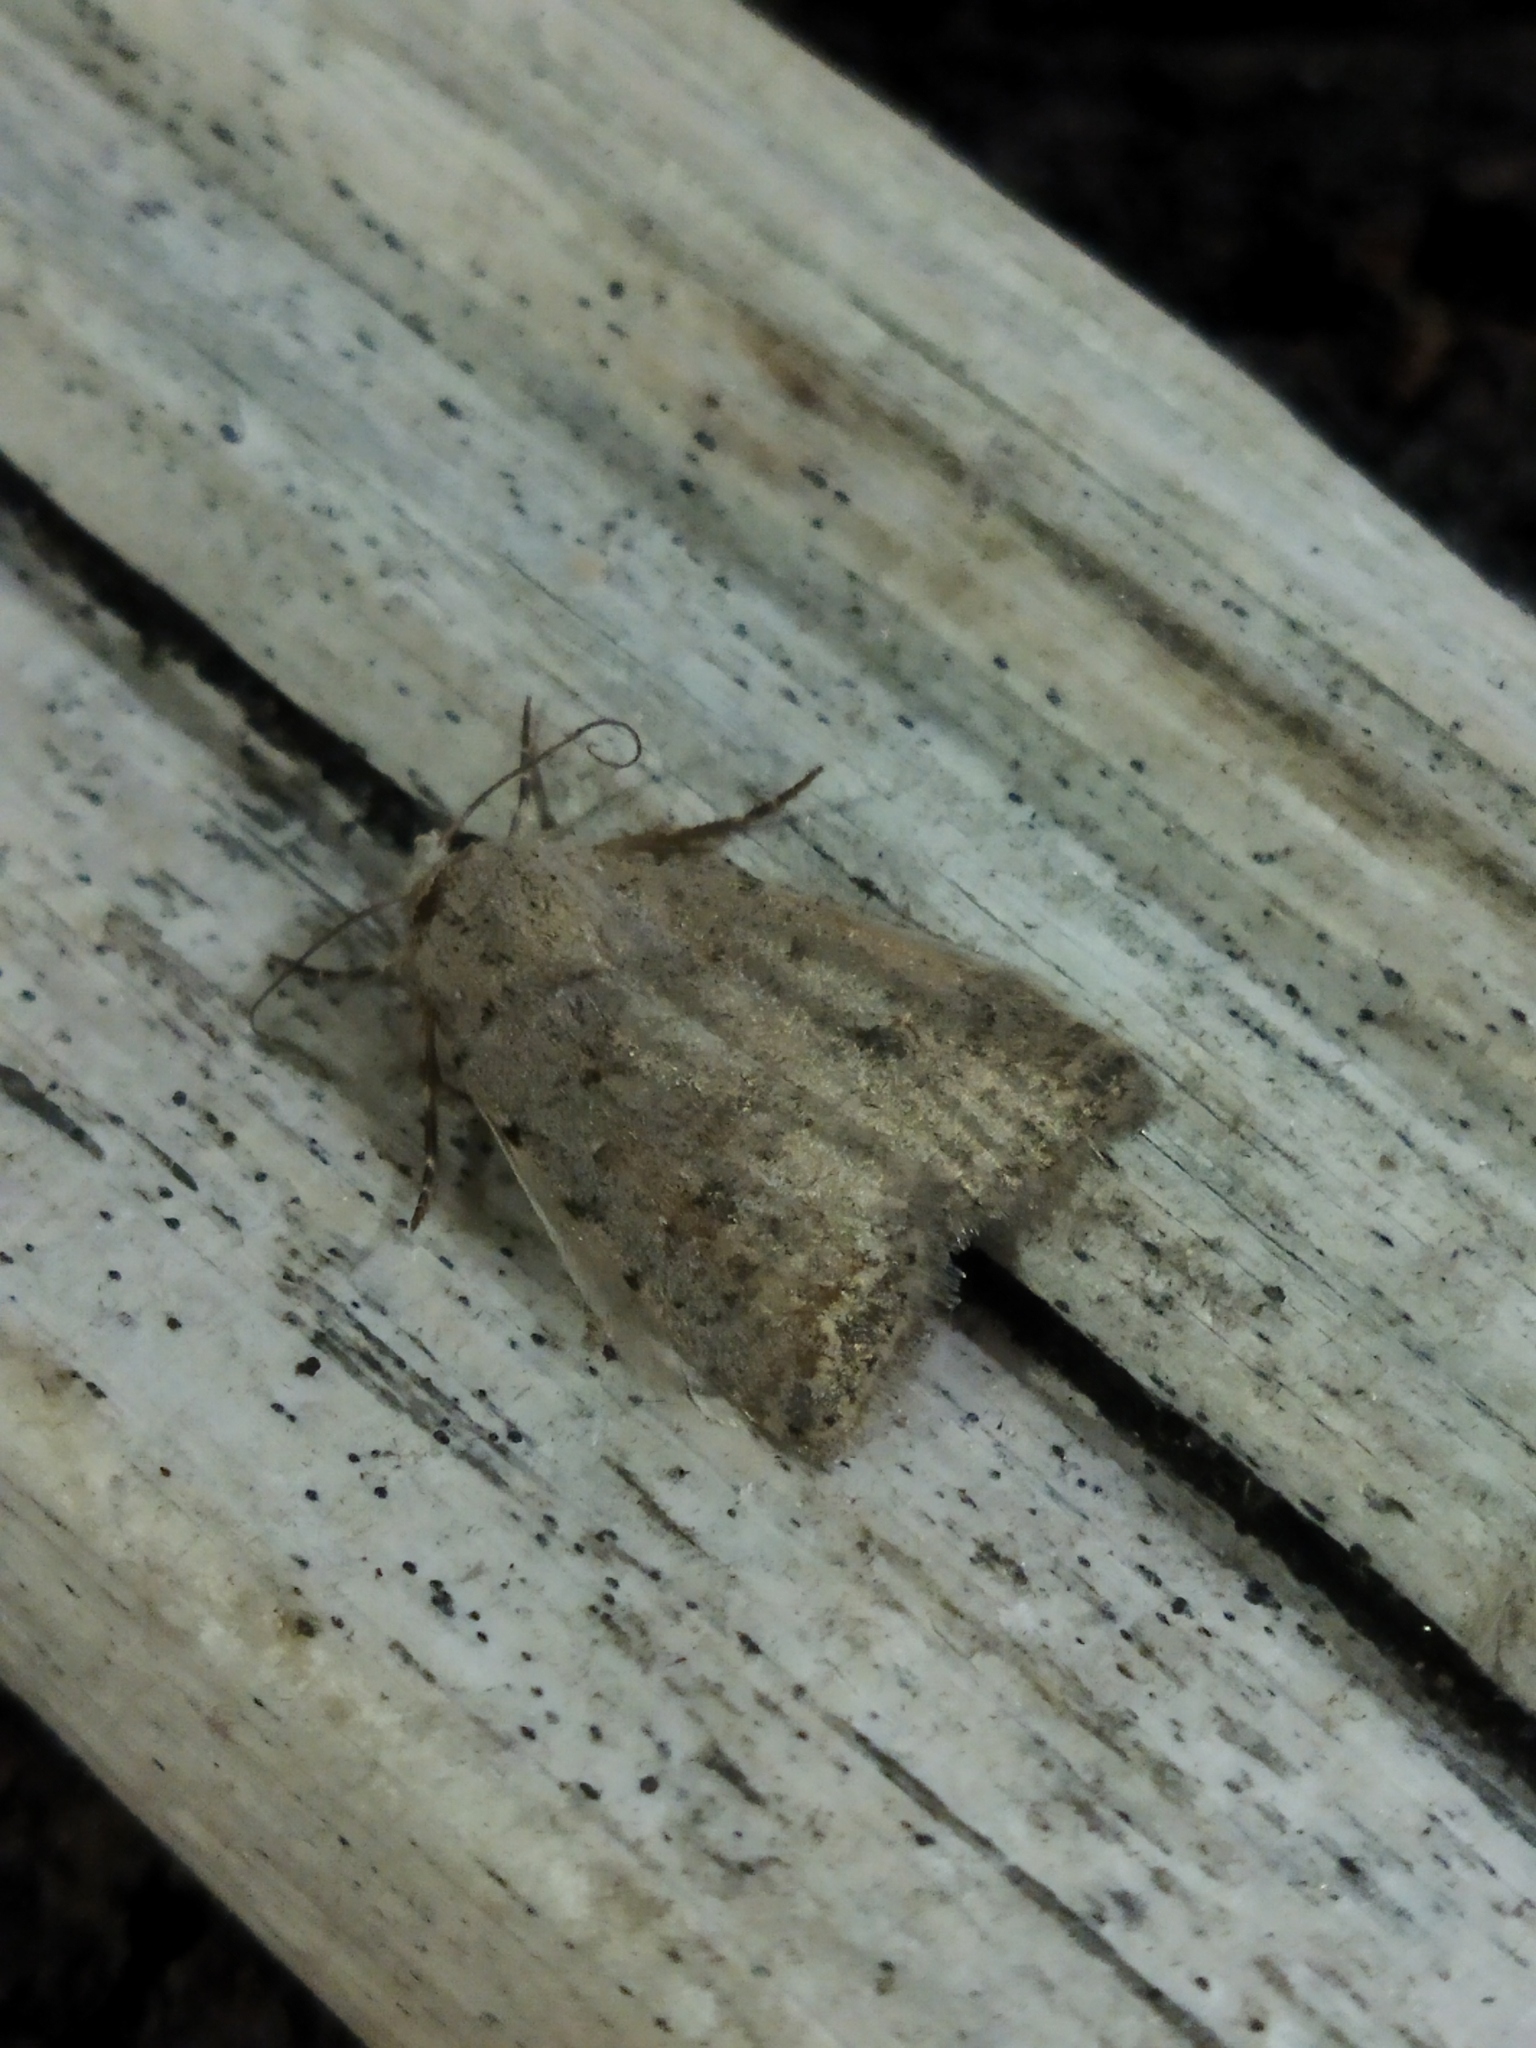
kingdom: Animalia
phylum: Arthropoda
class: Insecta
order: Lepidoptera
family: Noctuidae
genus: Caradrina
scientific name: Caradrina clavipalpis
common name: Pale mottled willow
